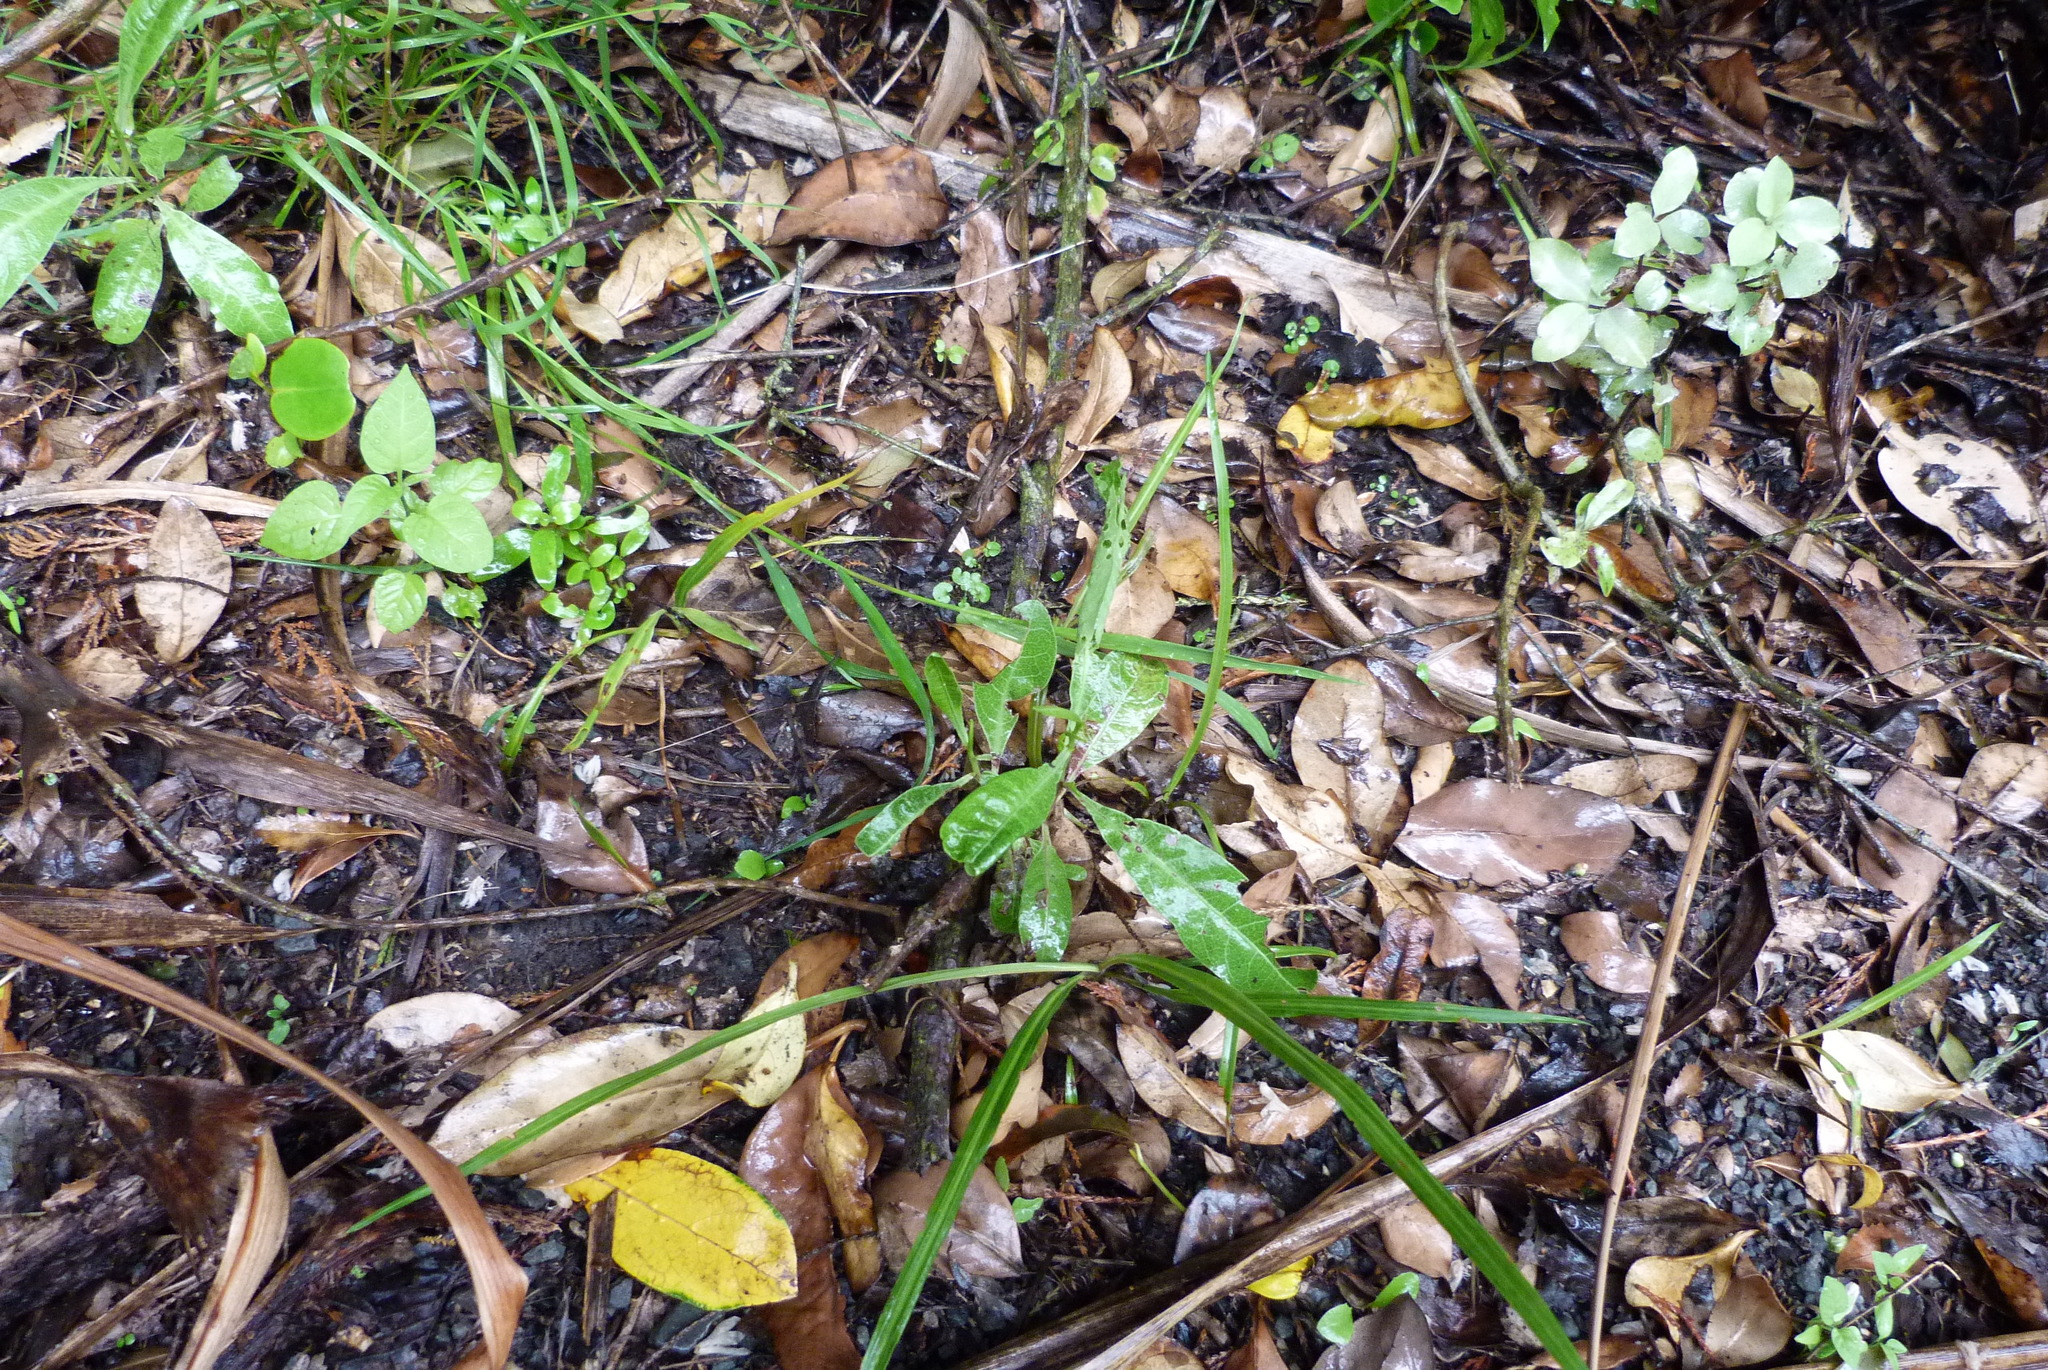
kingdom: Plantae
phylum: Tracheophyta
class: Magnoliopsida
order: Sapindales
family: Sapindaceae
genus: Dodonaea
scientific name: Dodonaea viscosa
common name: Hopbush
